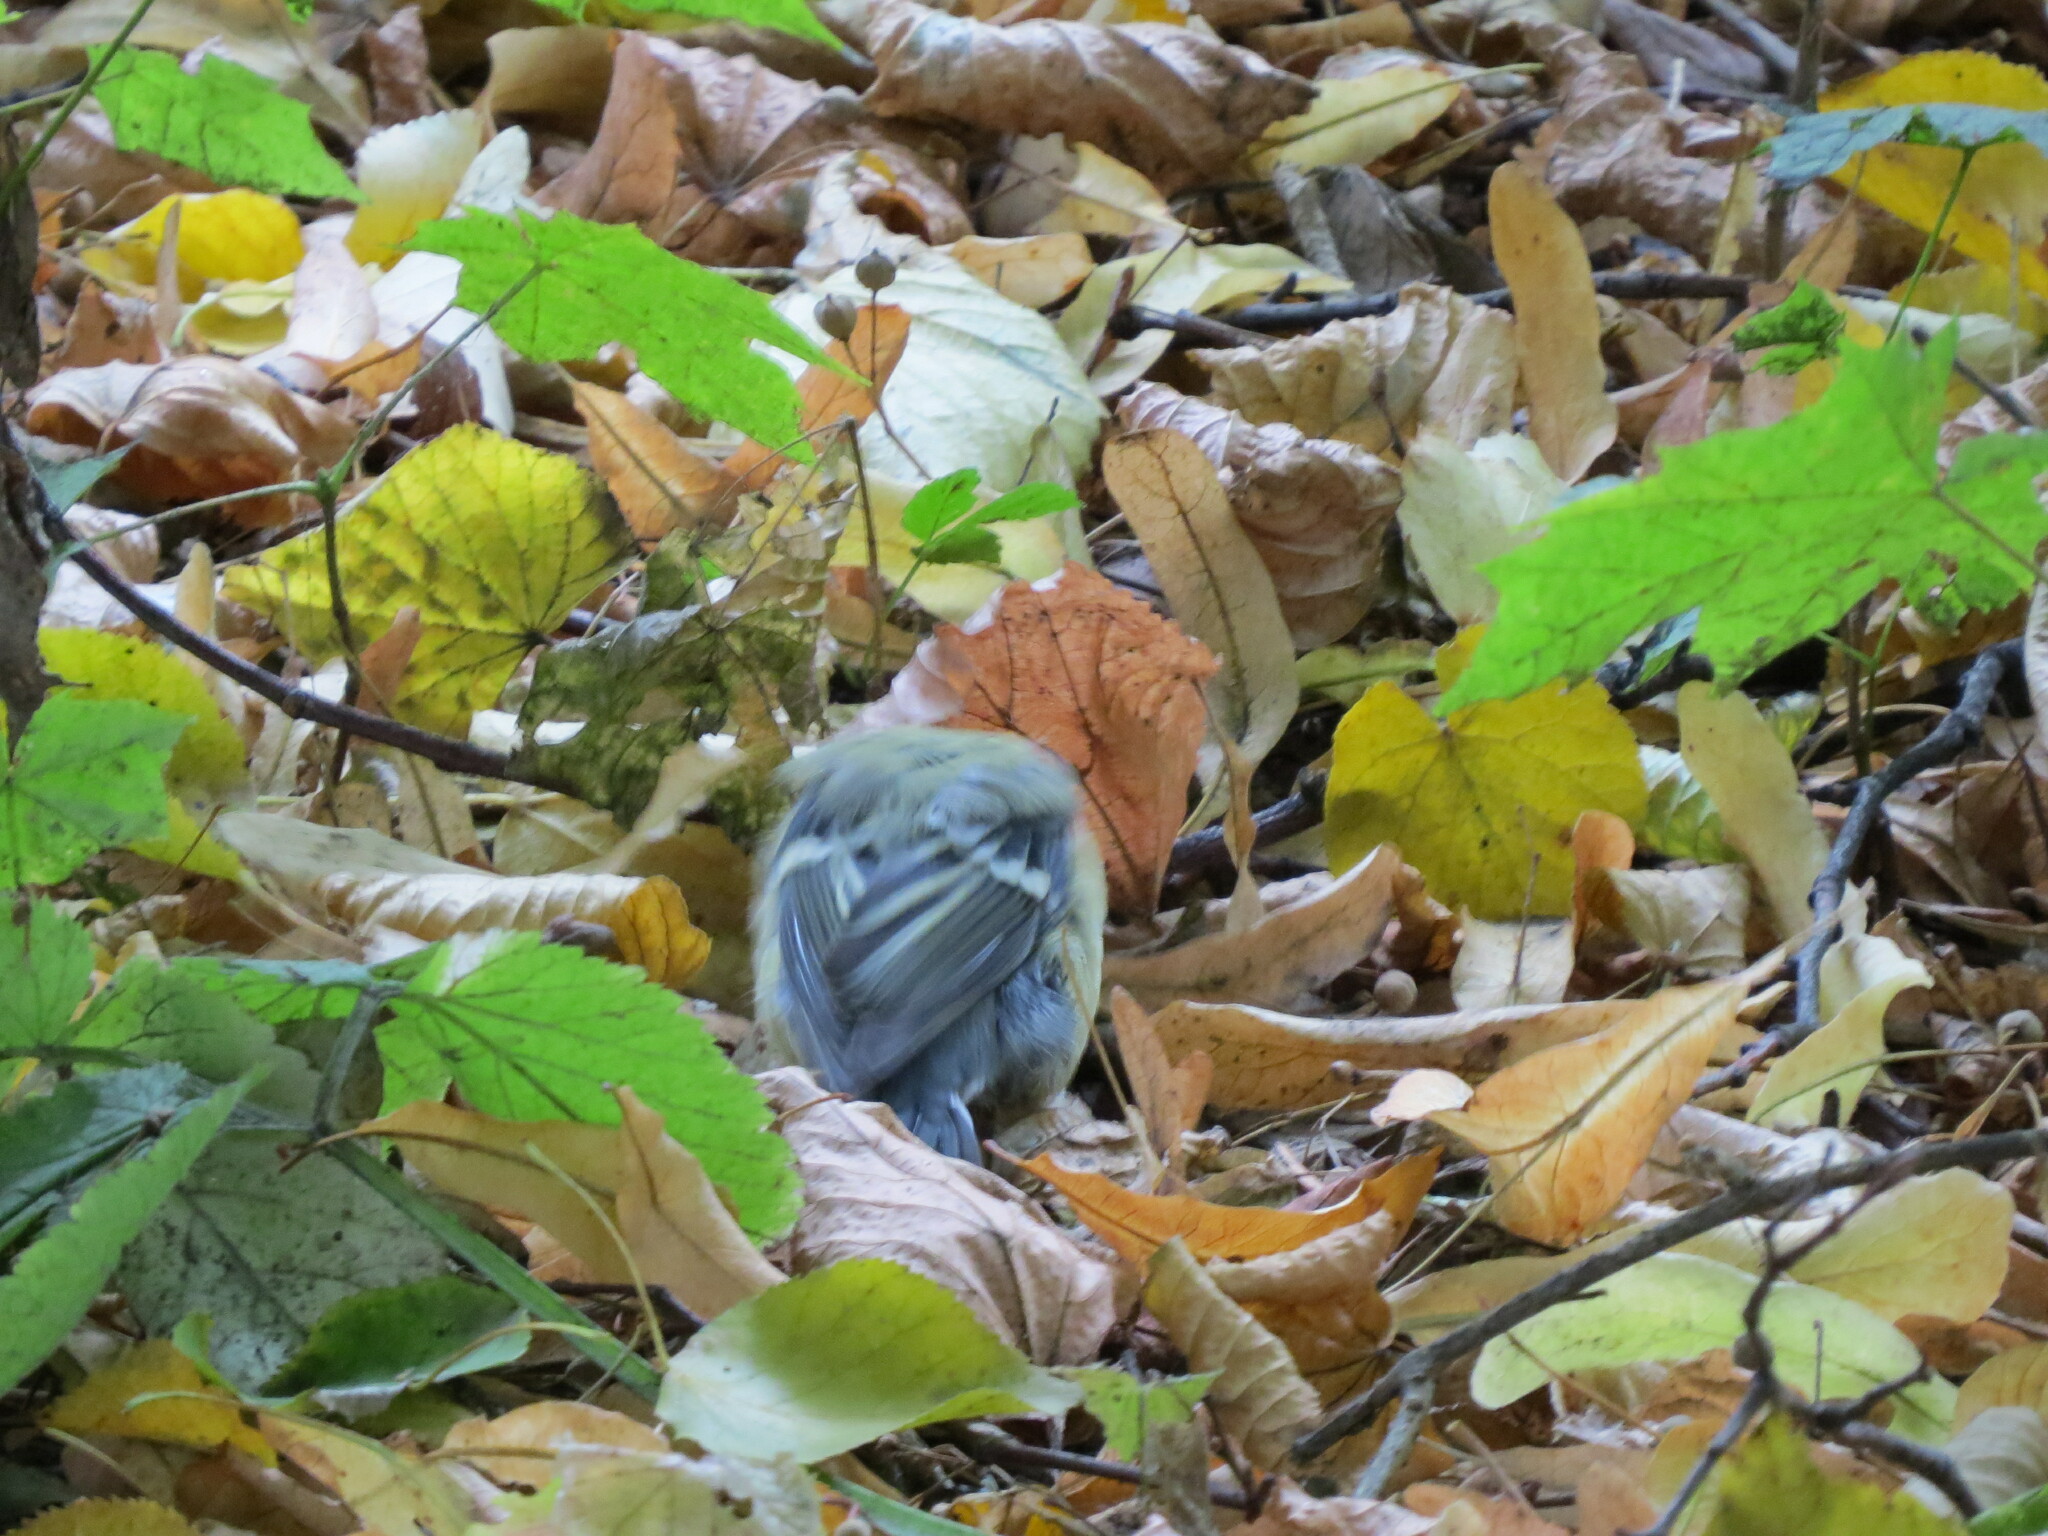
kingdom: Animalia
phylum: Chordata
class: Aves
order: Passeriformes
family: Paridae
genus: Parus
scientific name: Parus major
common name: Great tit
